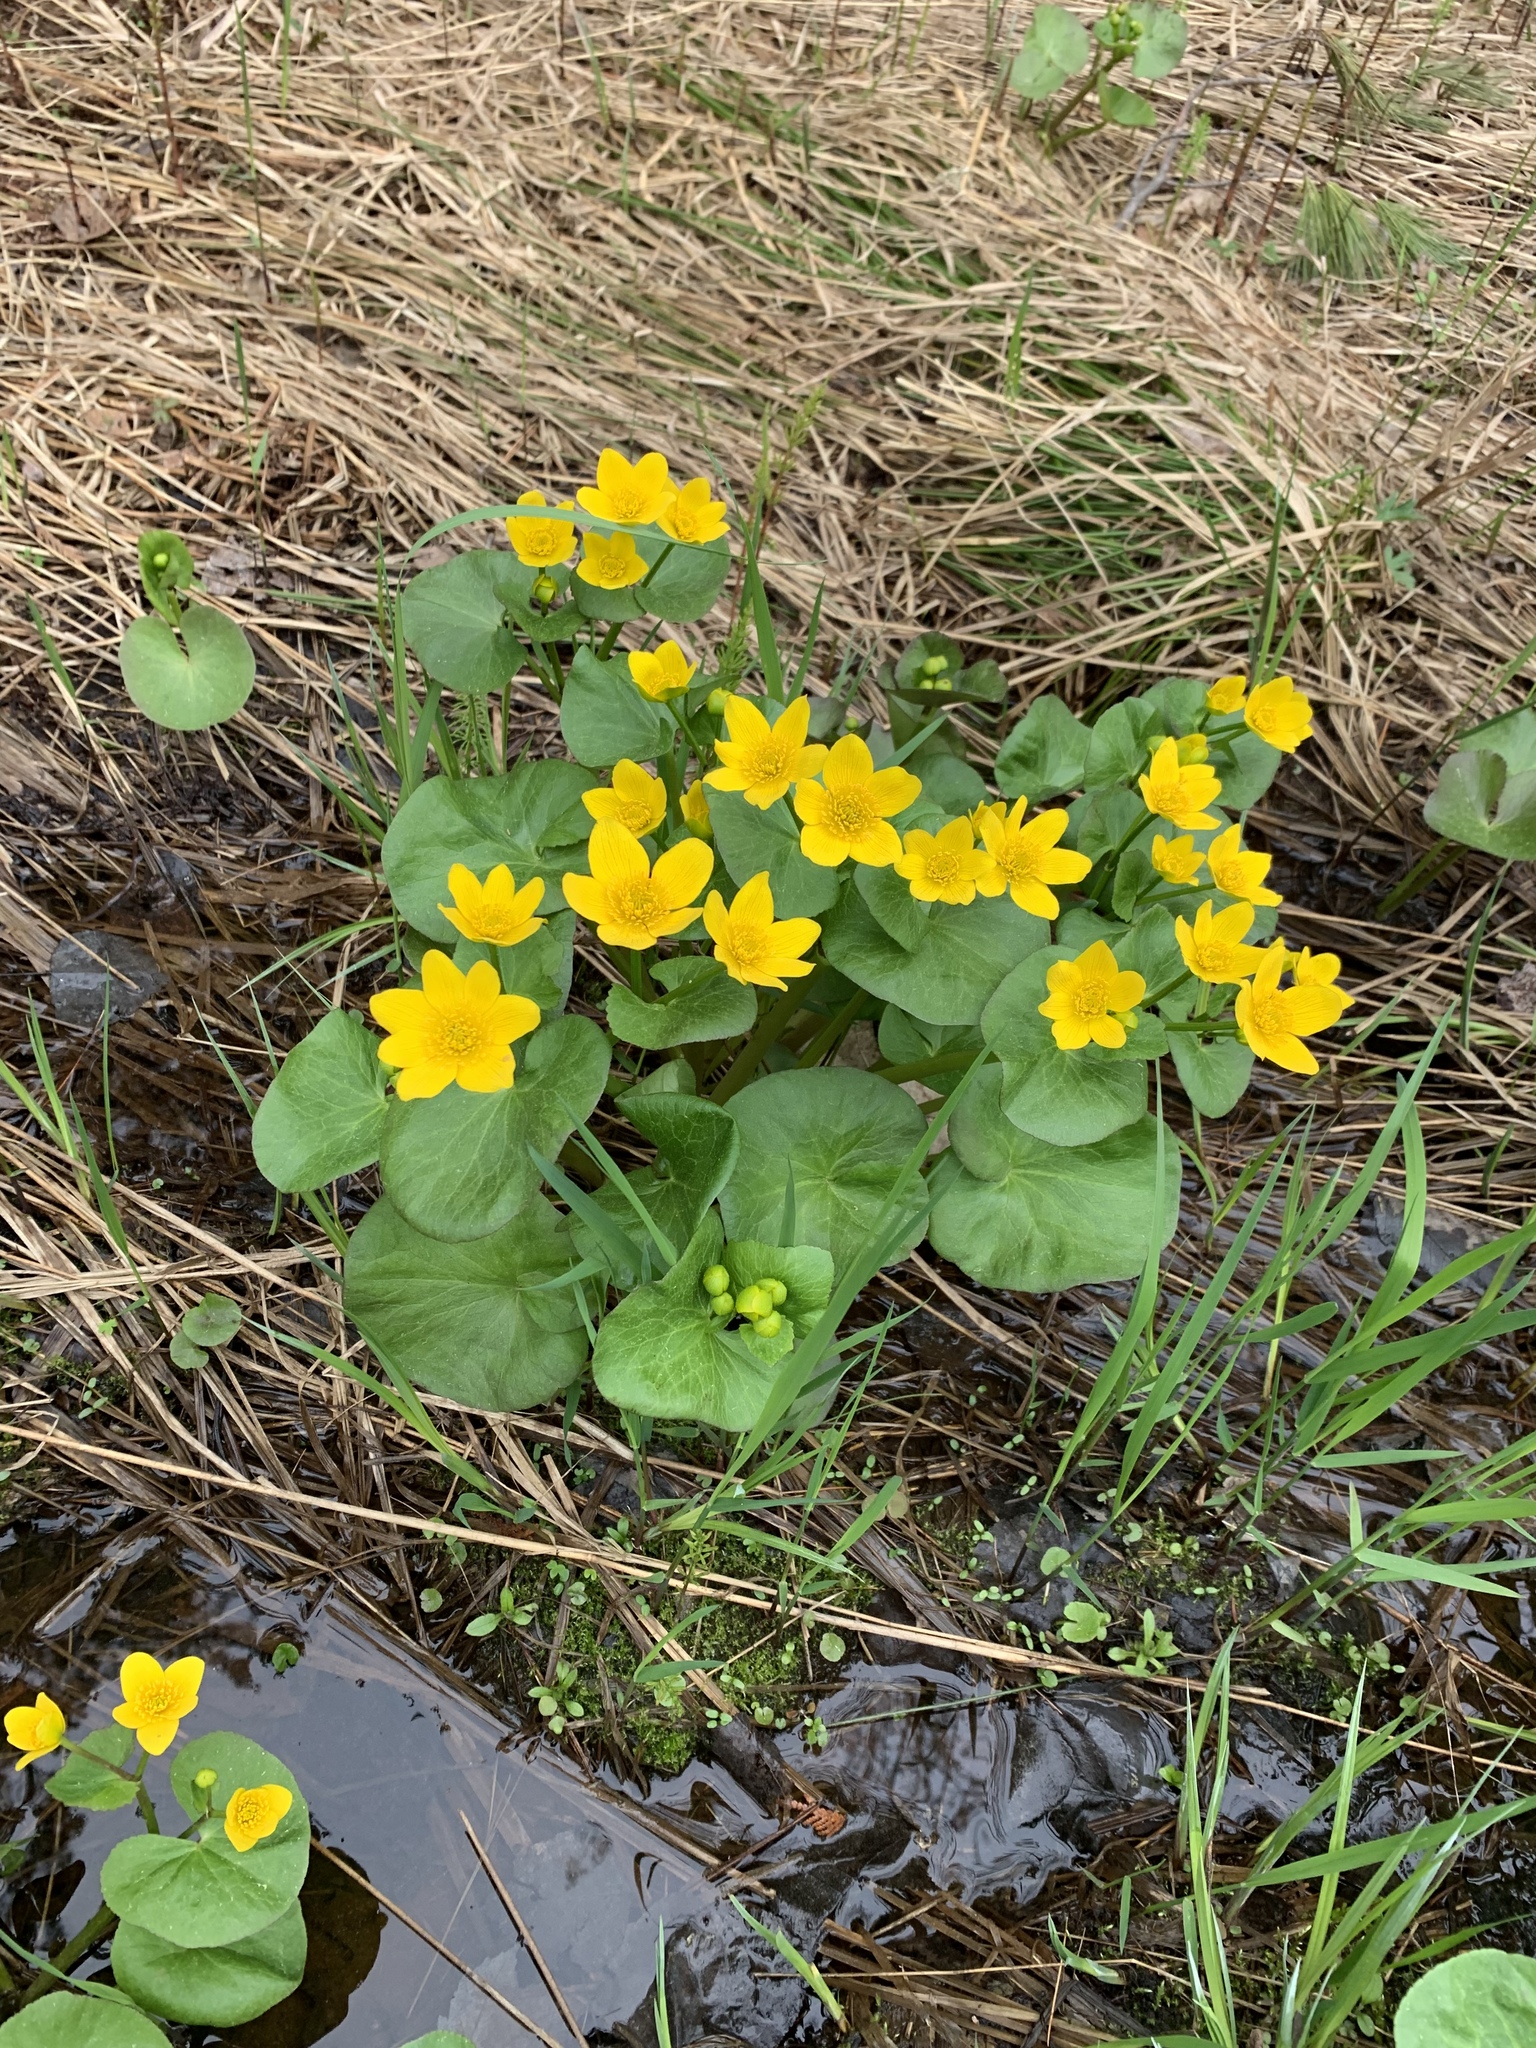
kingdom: Plantae
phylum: Tracheophyta
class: Magnoliopsida
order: Ranunculales
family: Ranunculaceae
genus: Caltha
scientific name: Caltha palustris
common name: Marsh marigold
